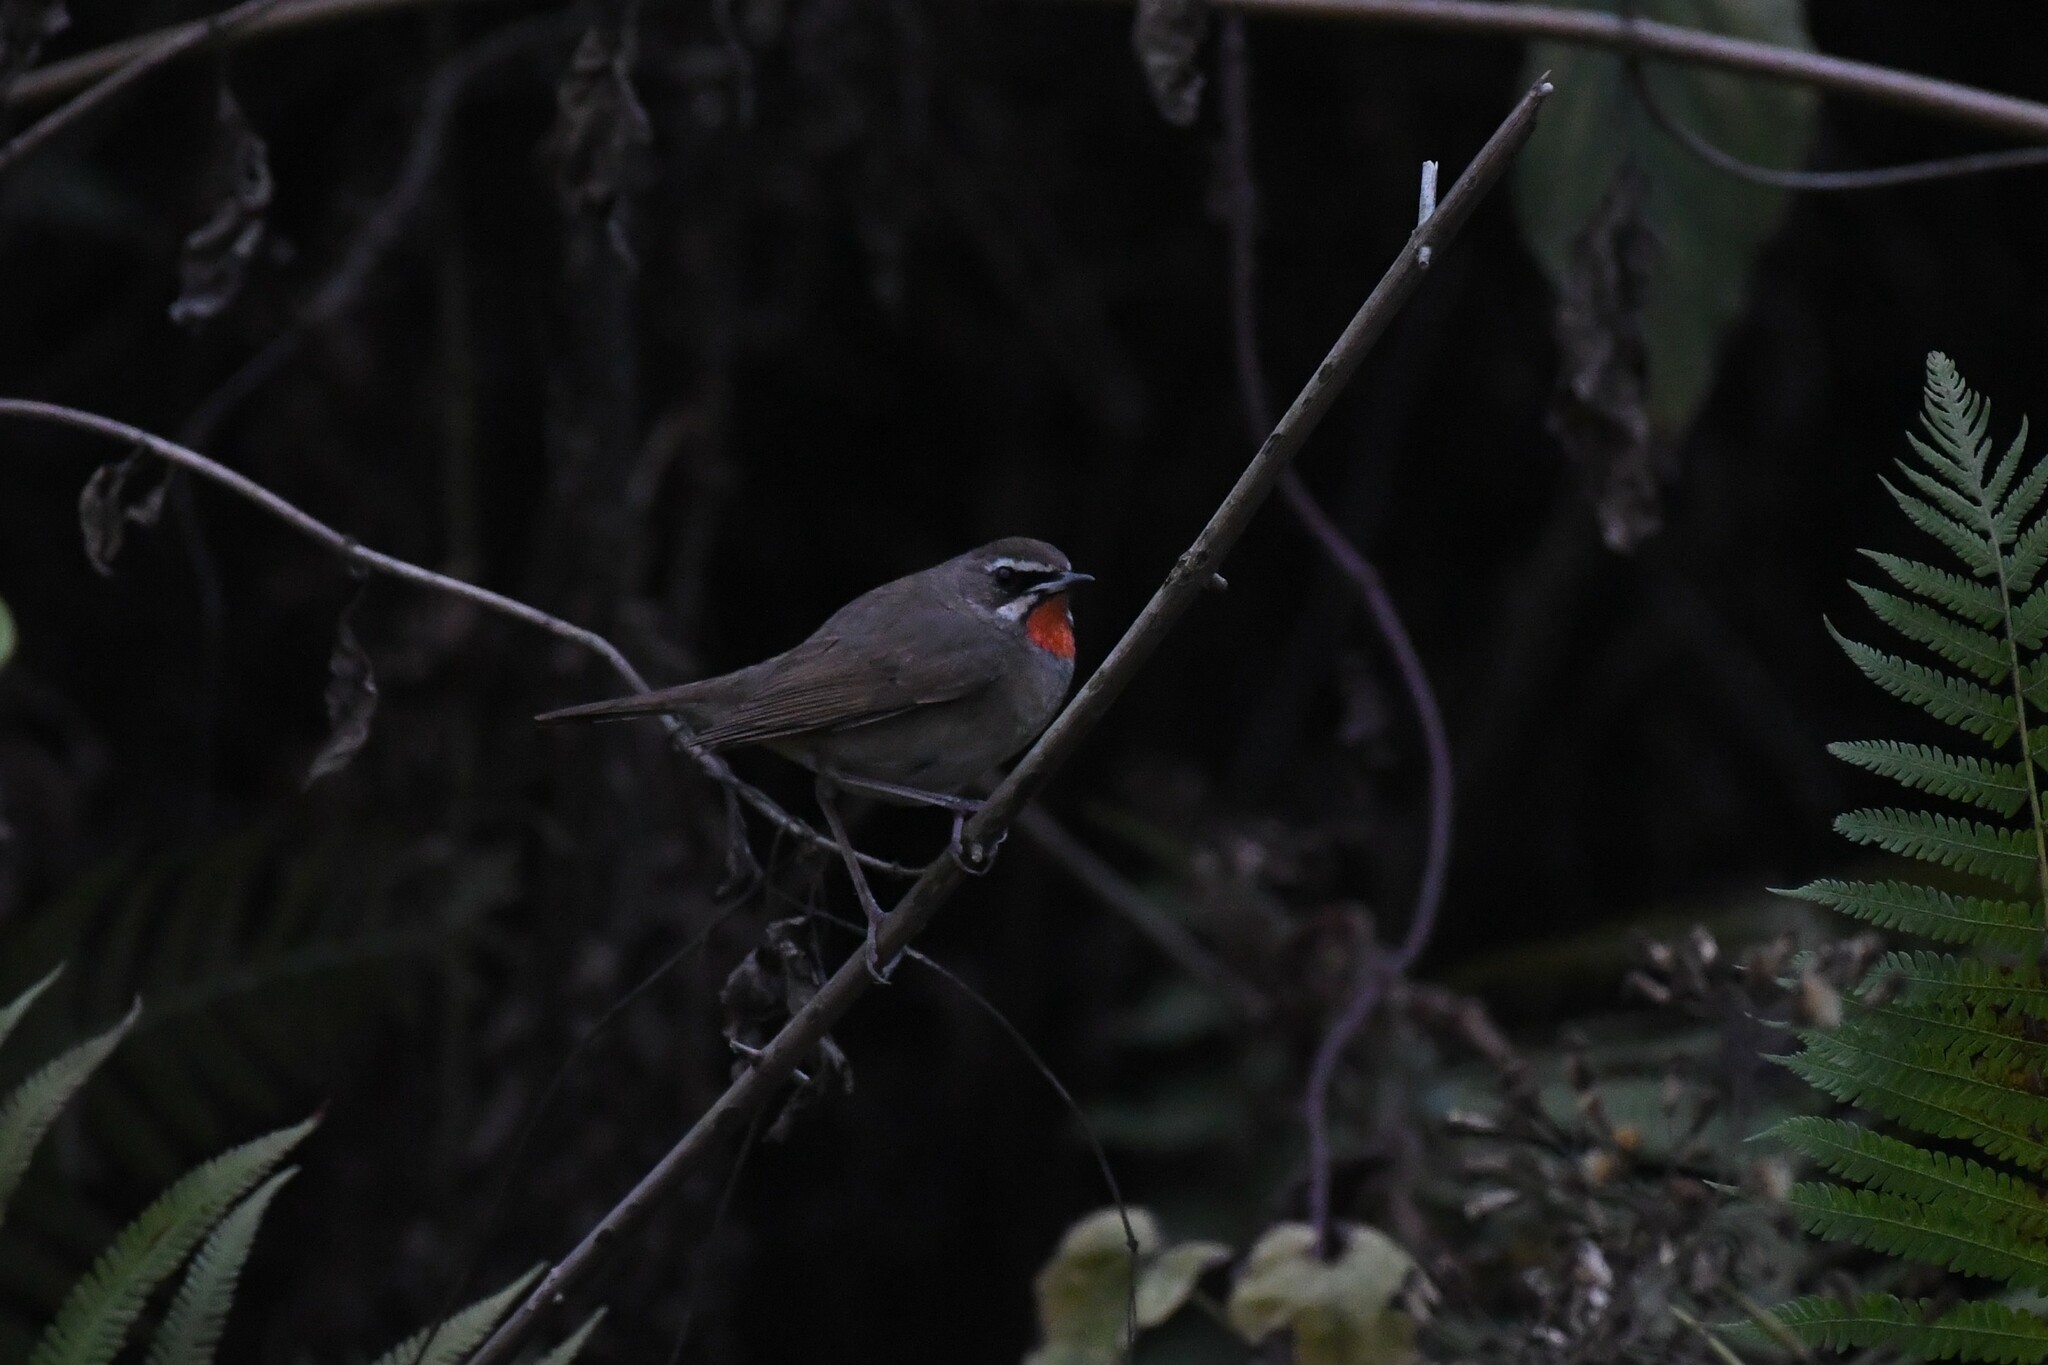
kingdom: Animalia
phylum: Chordata
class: Aves
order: Passeriformes
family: Muscicapidae
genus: Luscinia
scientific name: Luscinia calliope
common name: Siberian rubythroat
